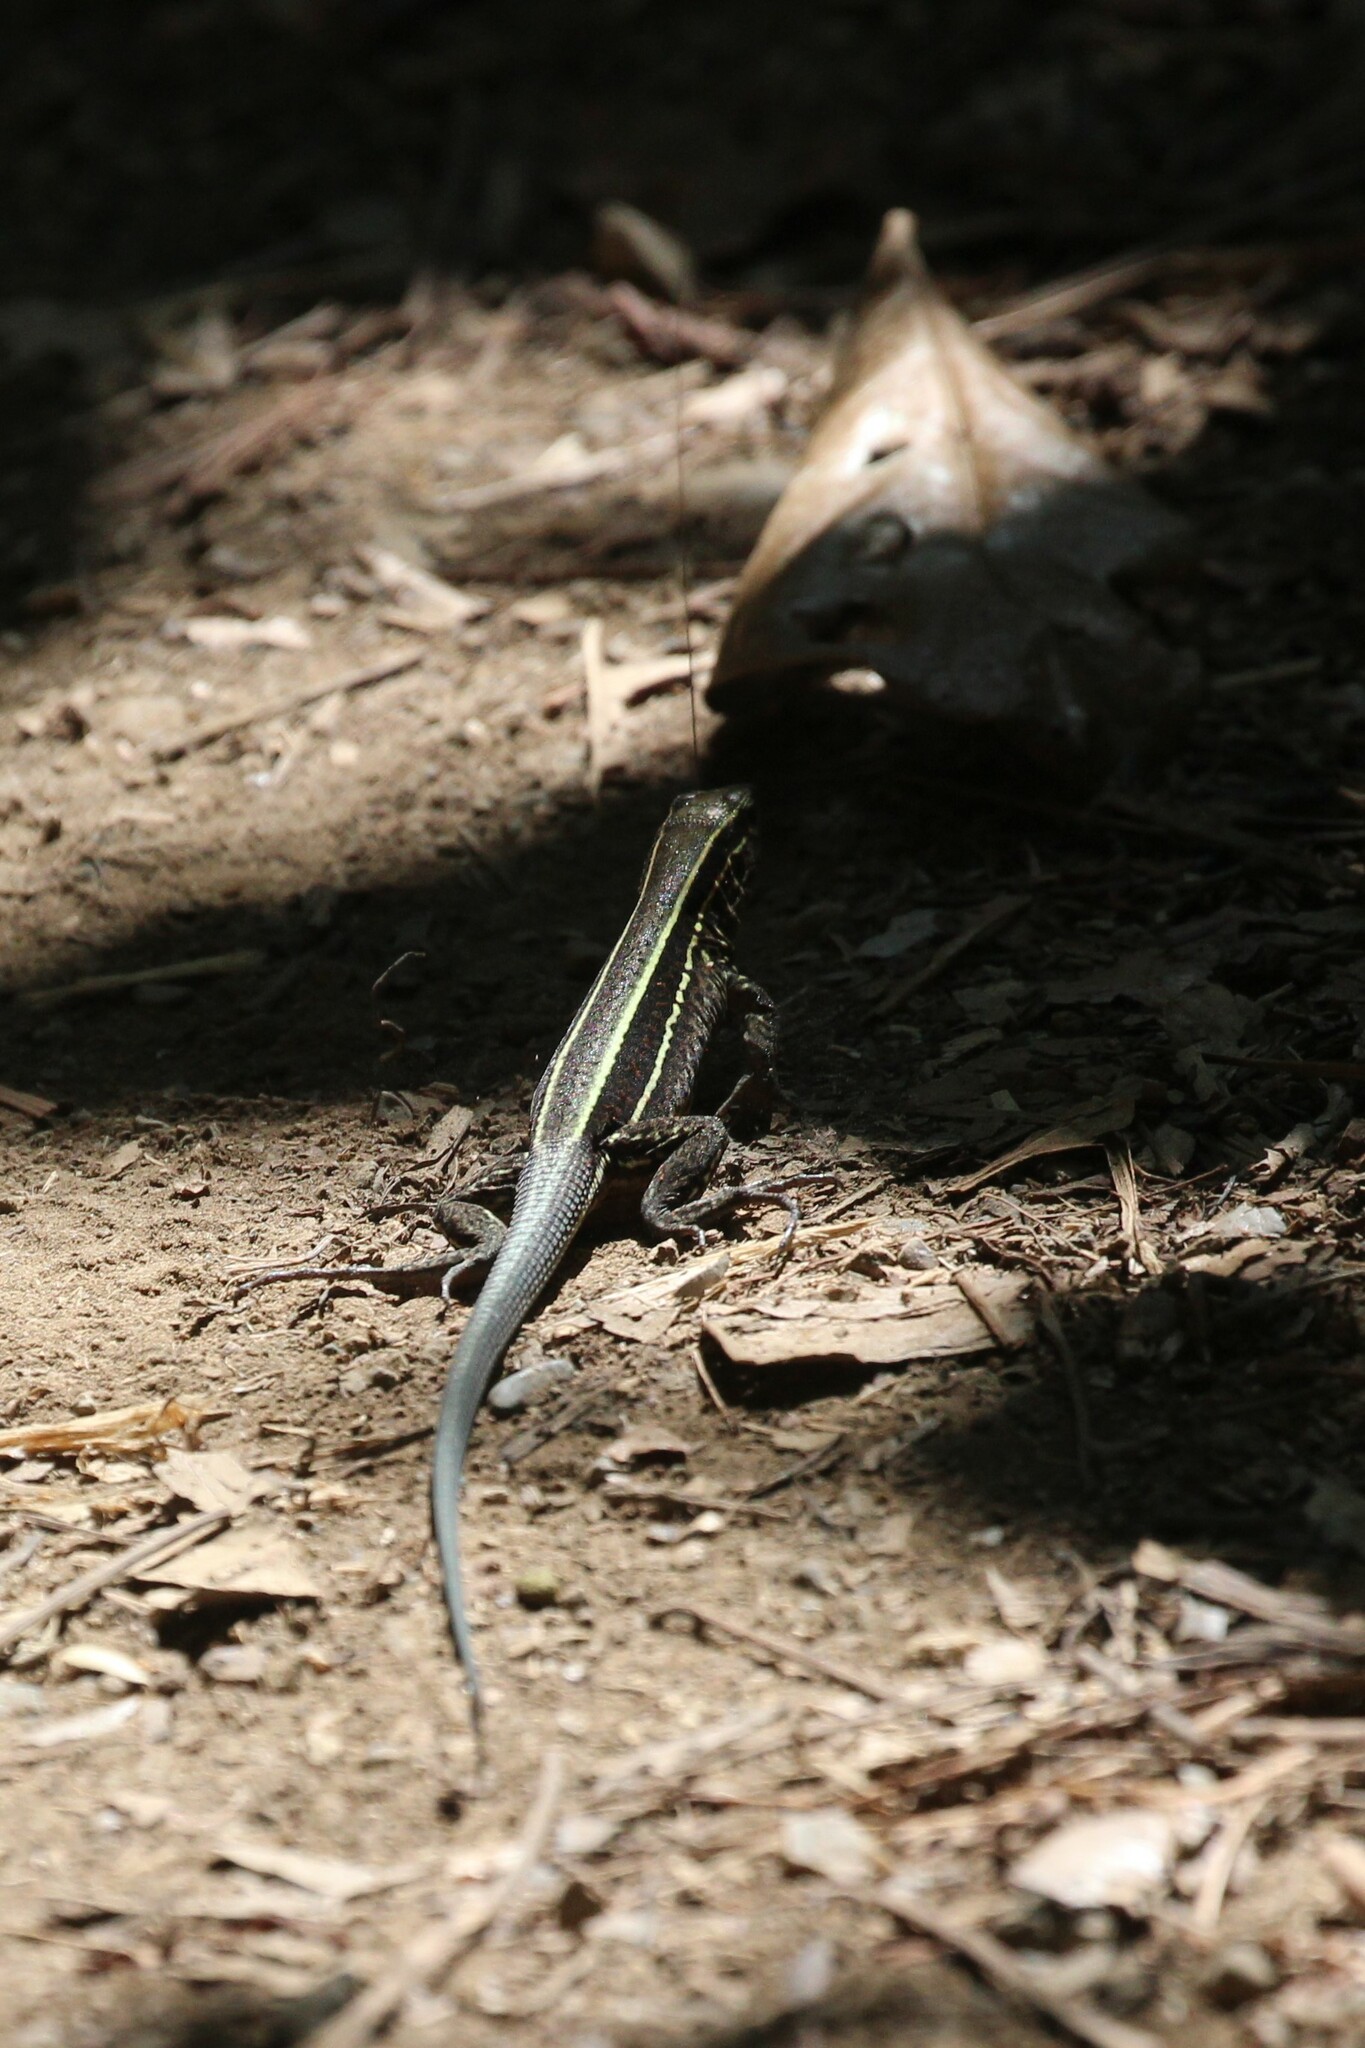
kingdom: Animalia
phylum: Chordata
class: Squamata
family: Teiidae
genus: Holcosus
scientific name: Holcosus quadrilineatus
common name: Four-lined ameiva
